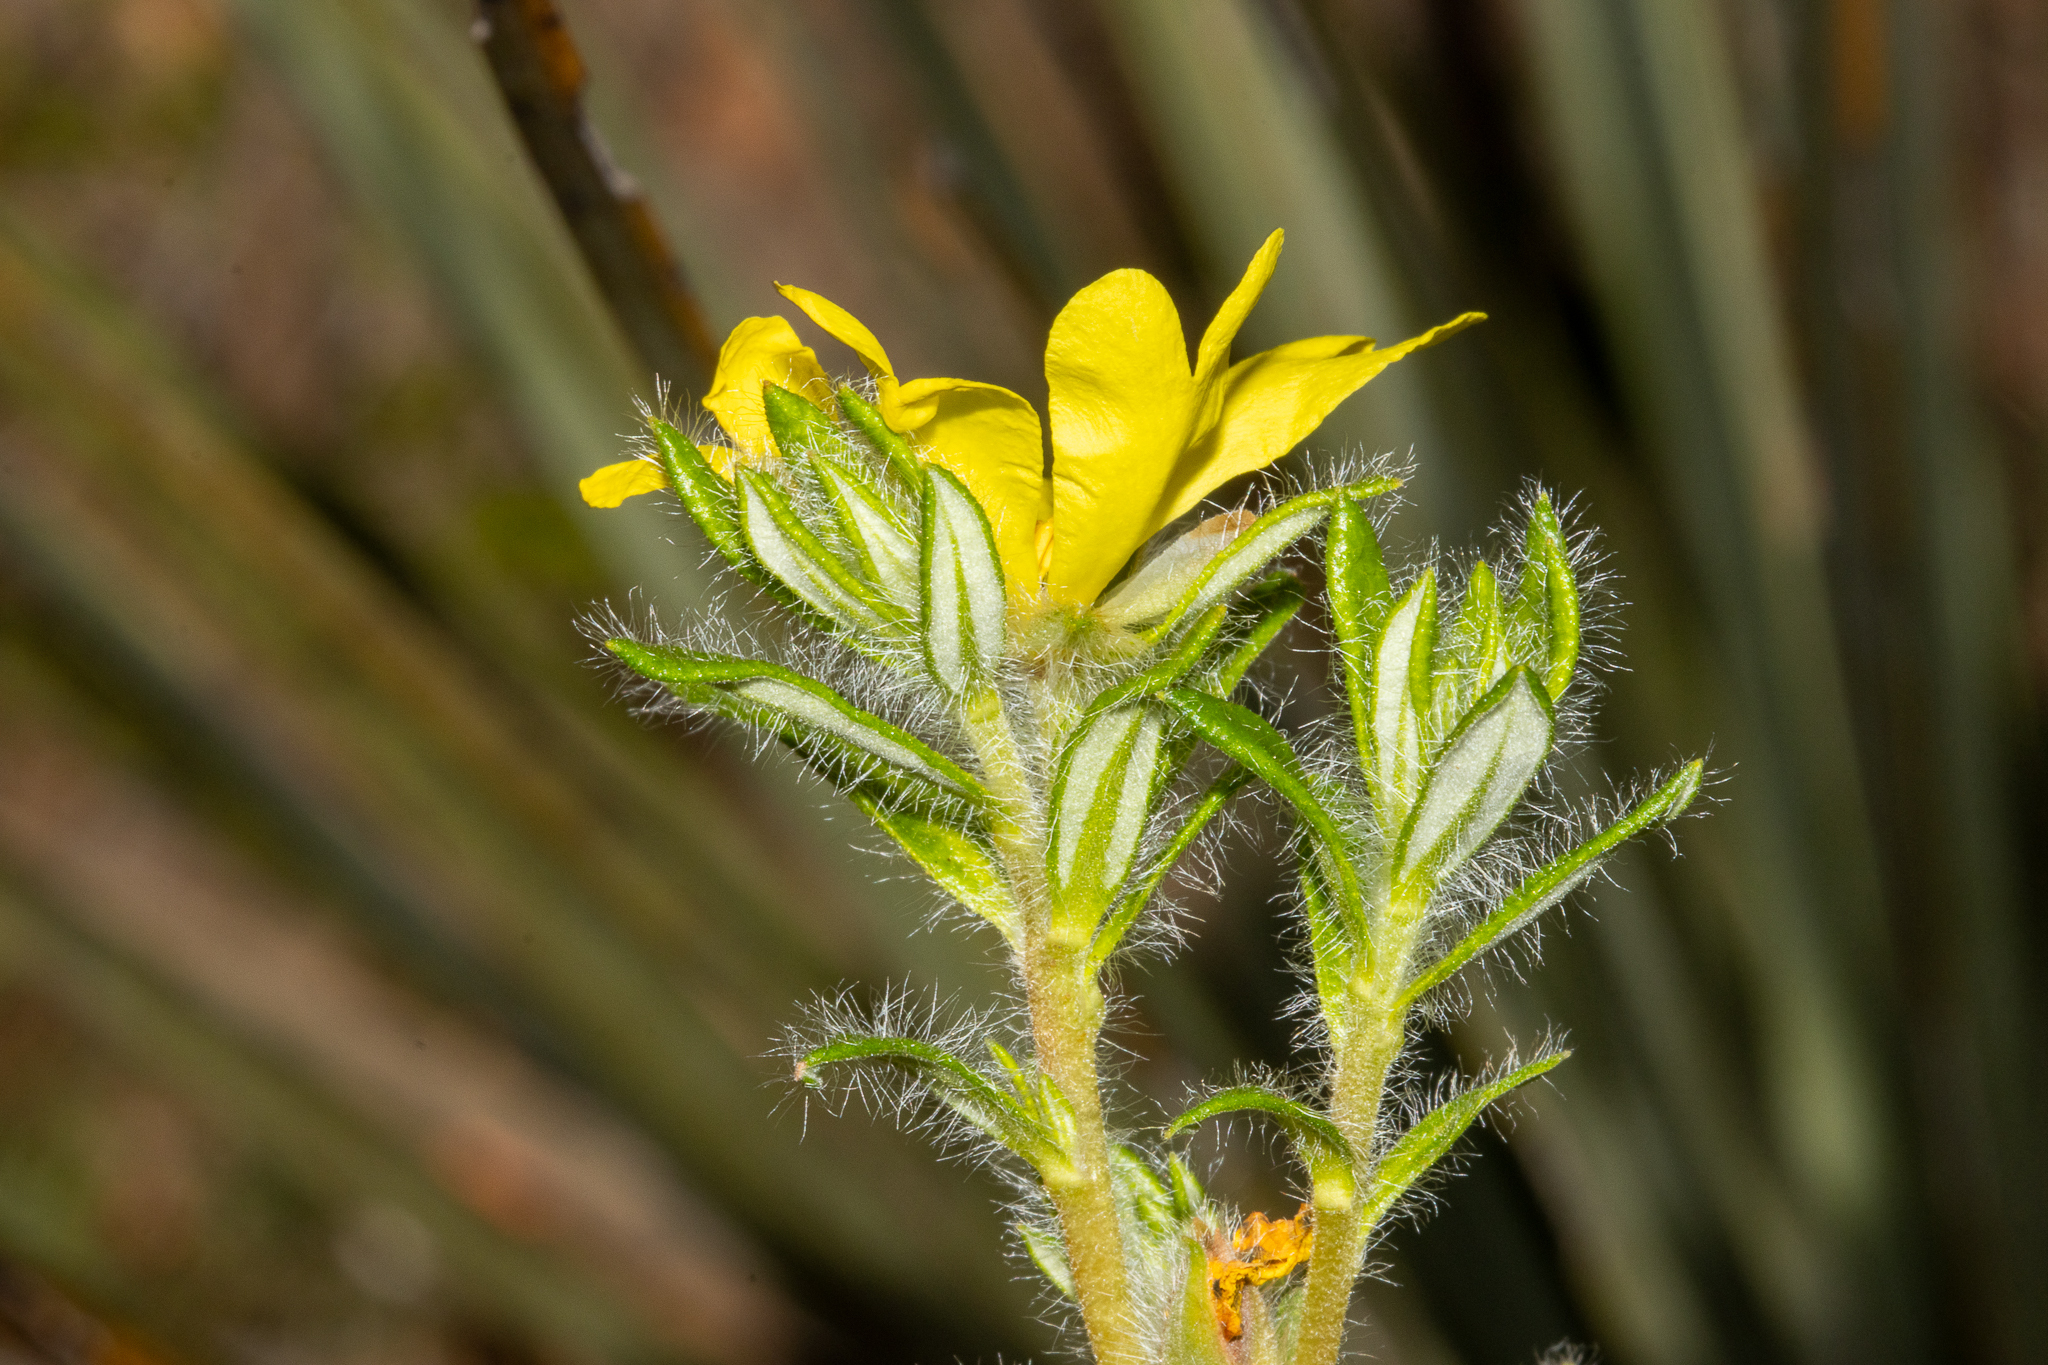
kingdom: Plantae
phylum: Tracheophyta
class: Magnoliopsida
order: Dilleniales
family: Dilleniaceae
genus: Hibbertia
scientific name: Hibbertia villifera
